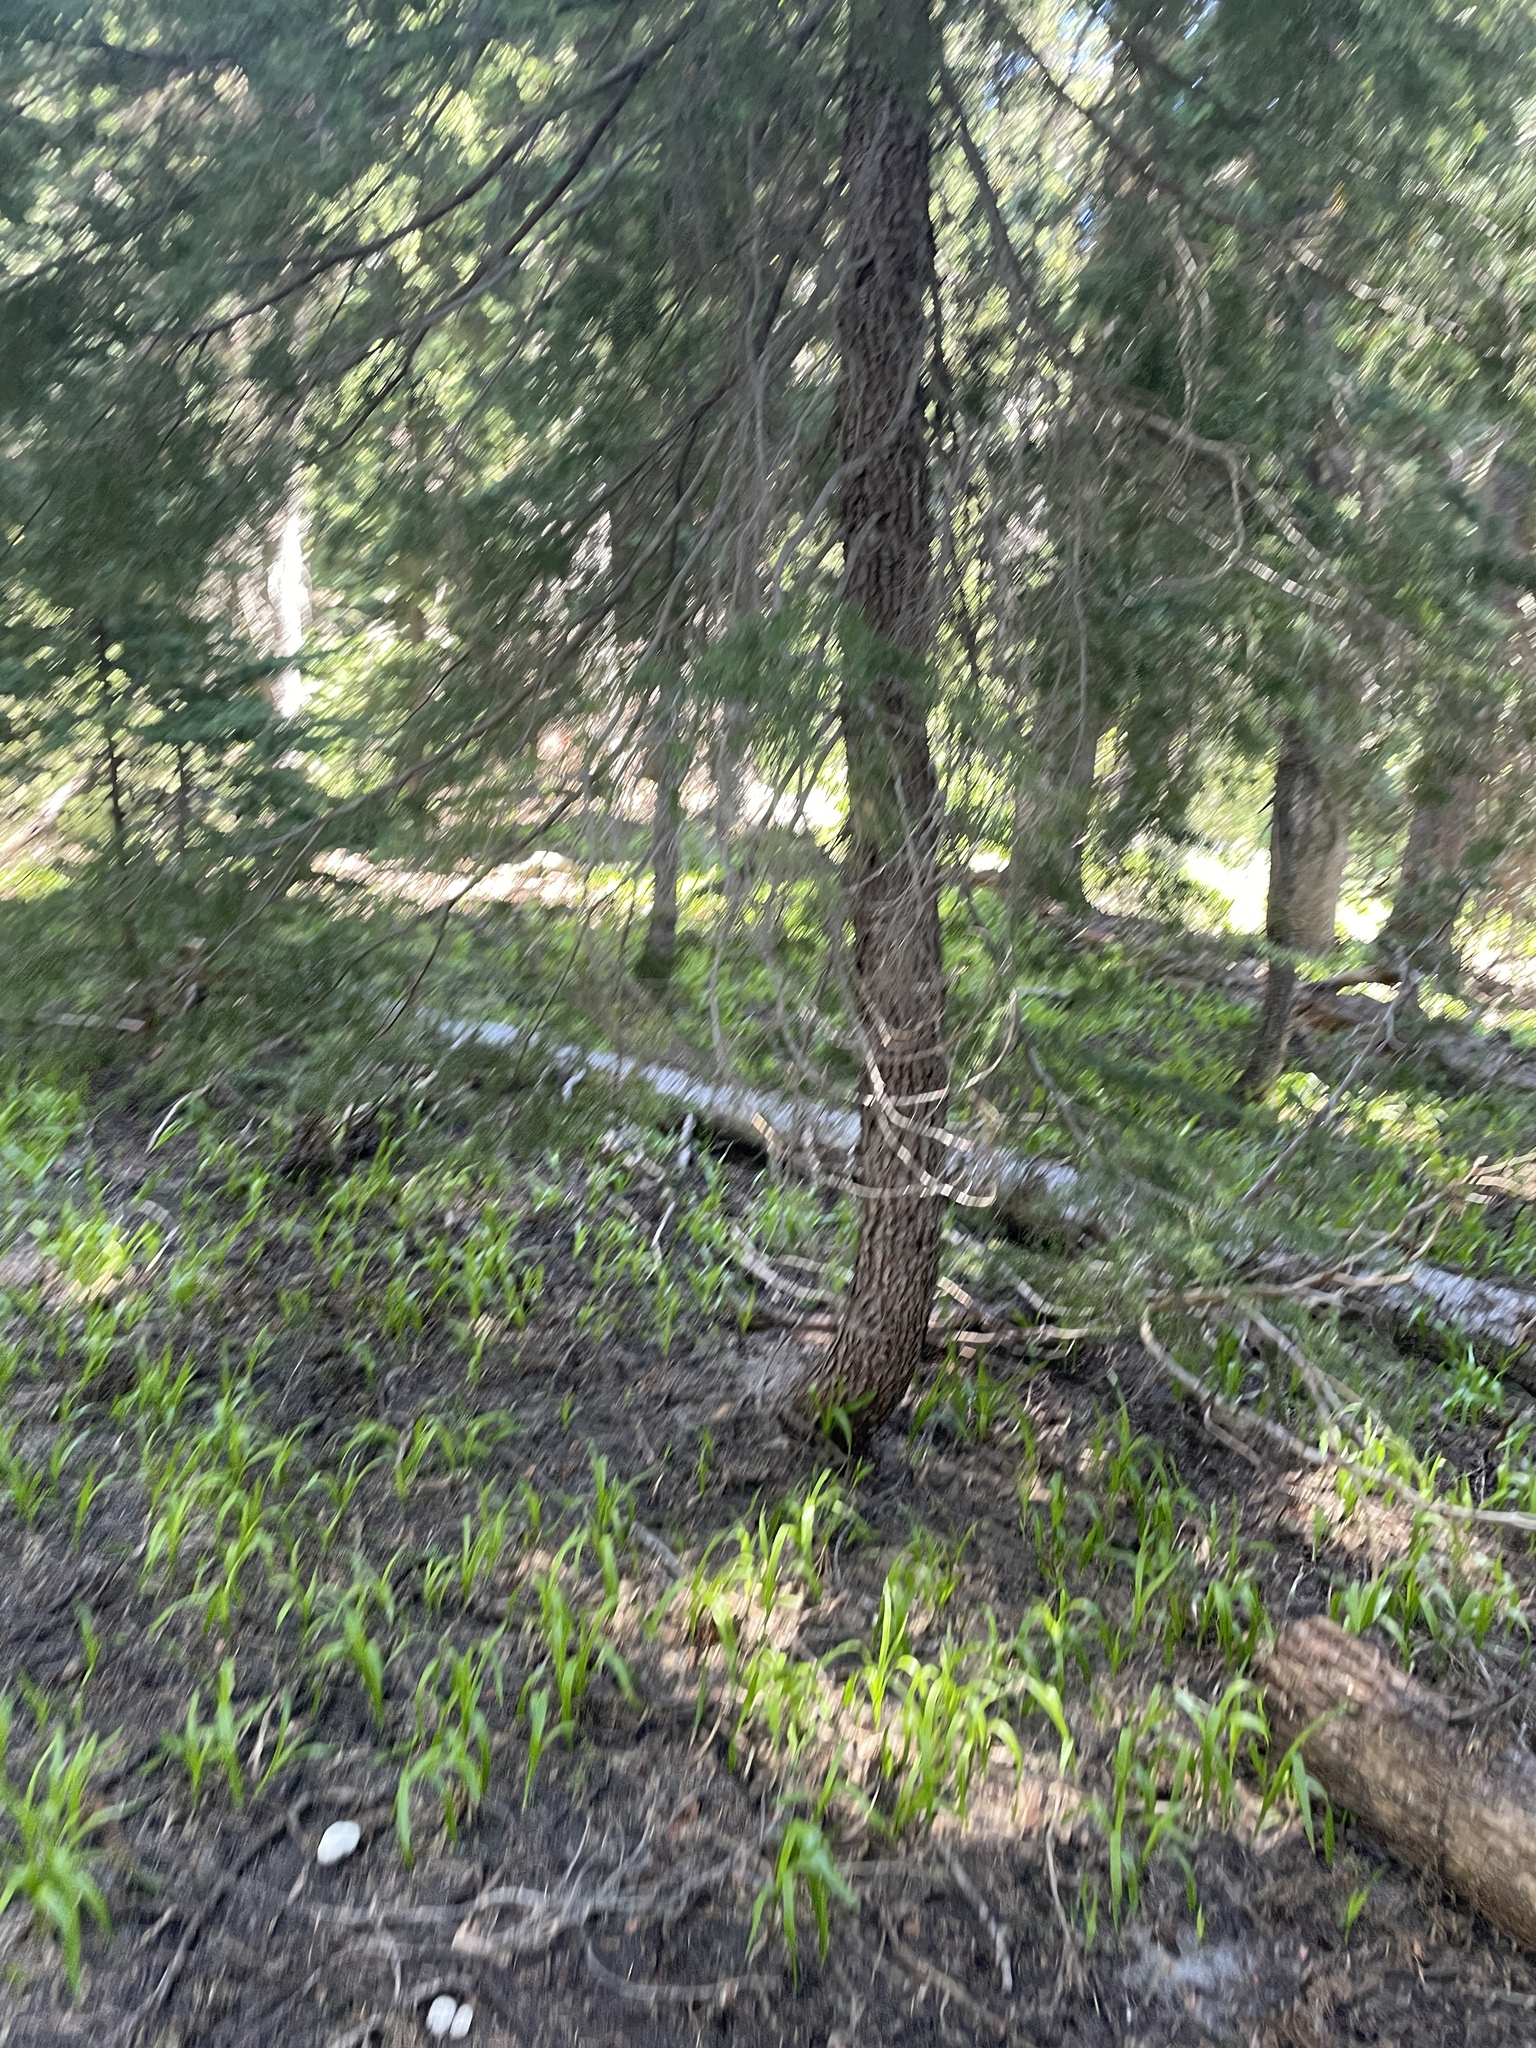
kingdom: Plantae
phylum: Tracheophyta
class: Pinopsida
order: Pinales
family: Pinaceae
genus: Tsuga
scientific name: Tsuga mertensiana
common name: Mountain hemlock
